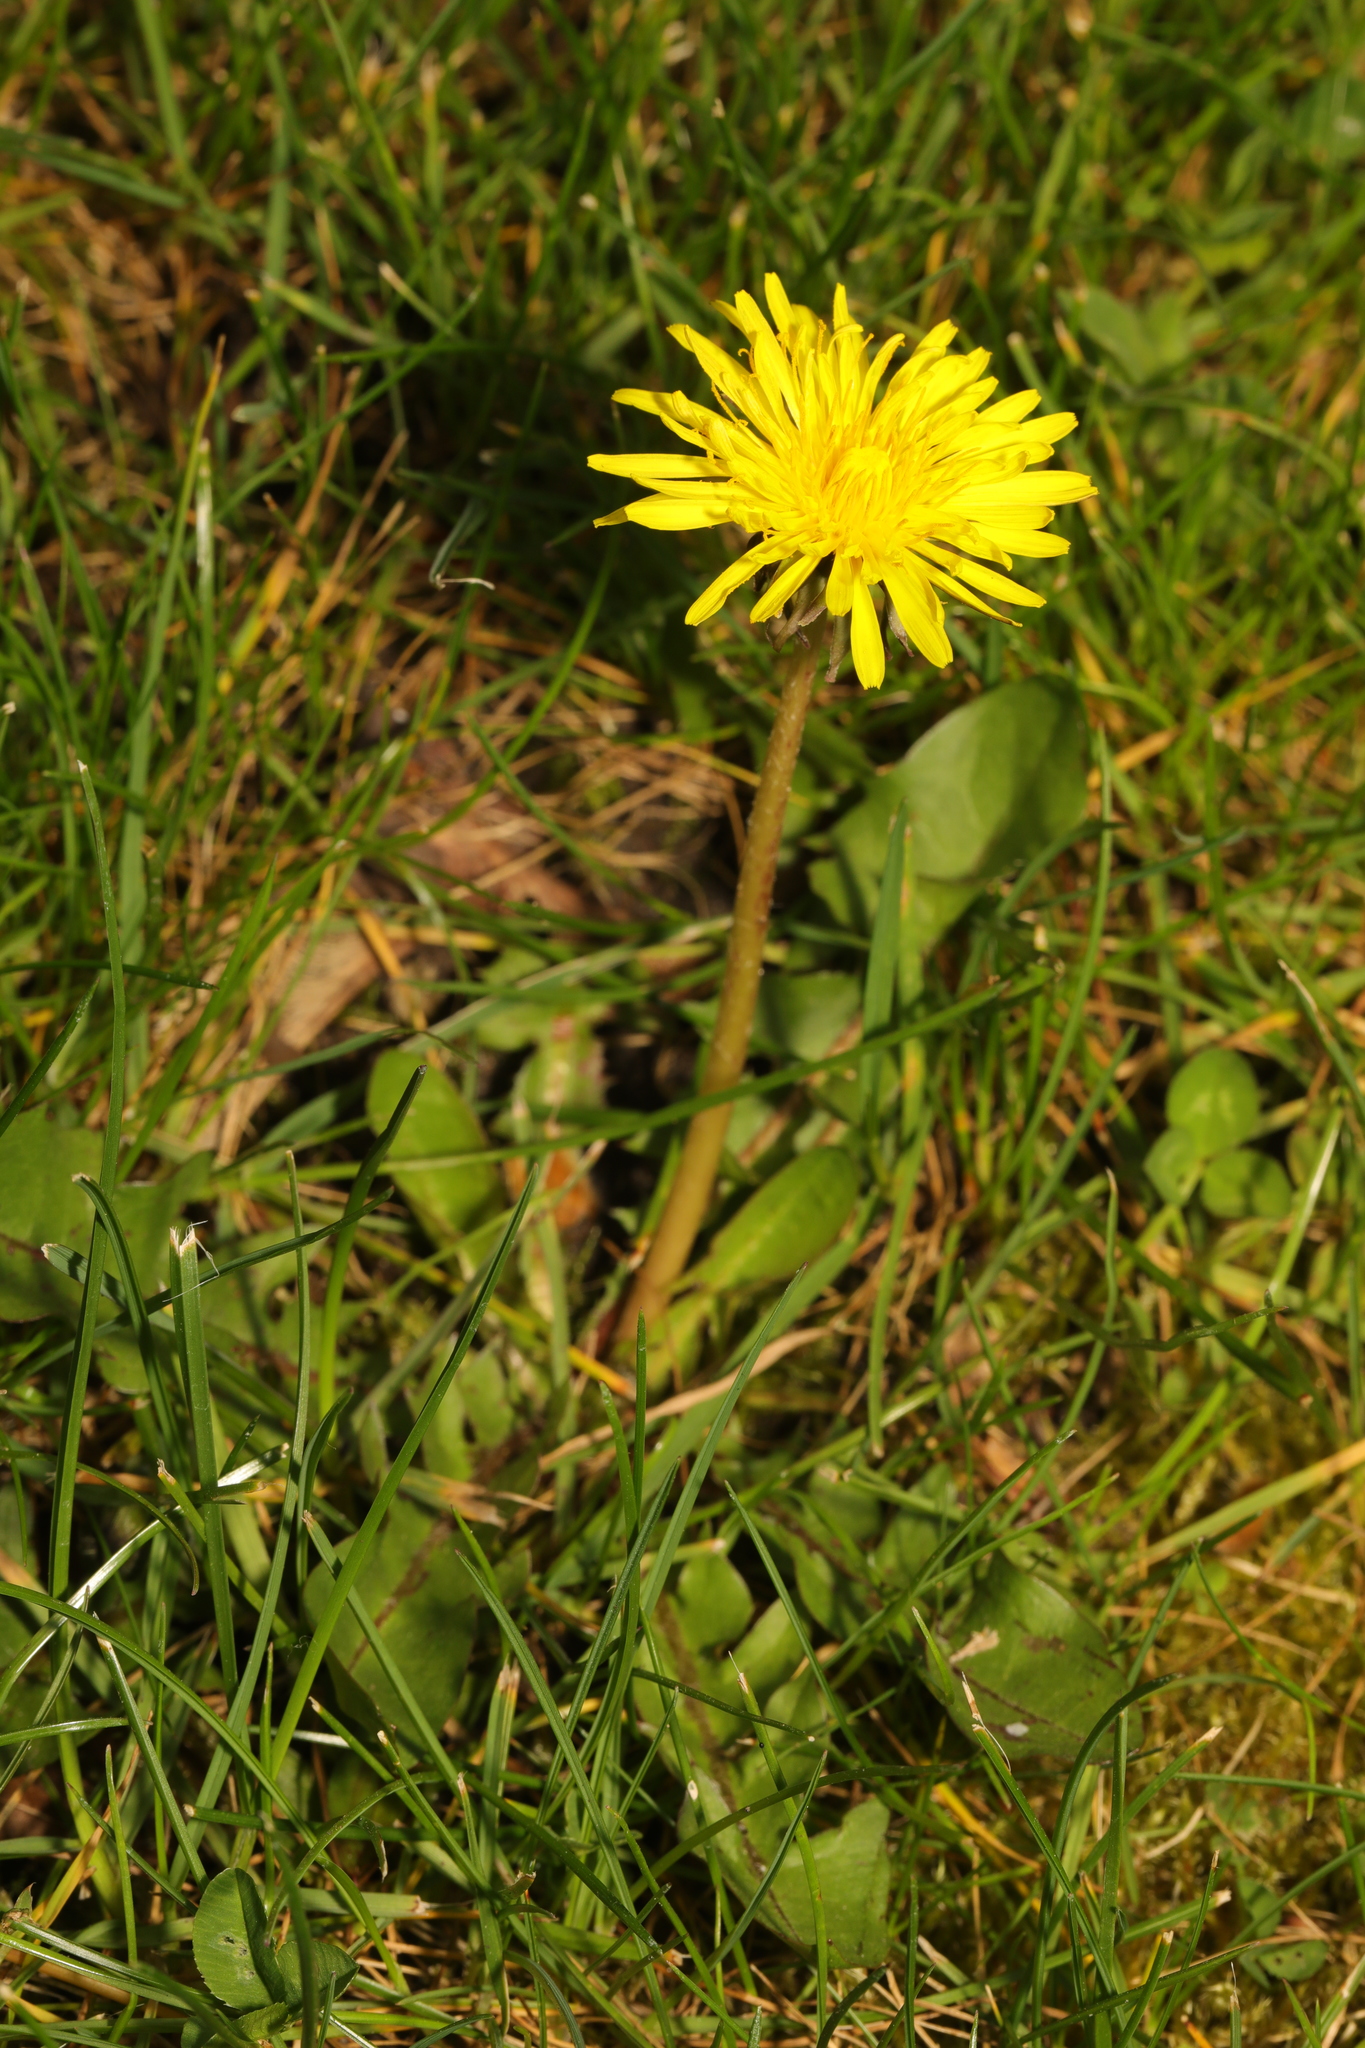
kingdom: Plantae
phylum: Tracheophyta
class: Magnoliopsida
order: Asterales
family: Asteraceae
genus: Taraxacum
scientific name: Taraxacum officinale
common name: Common dandelion
